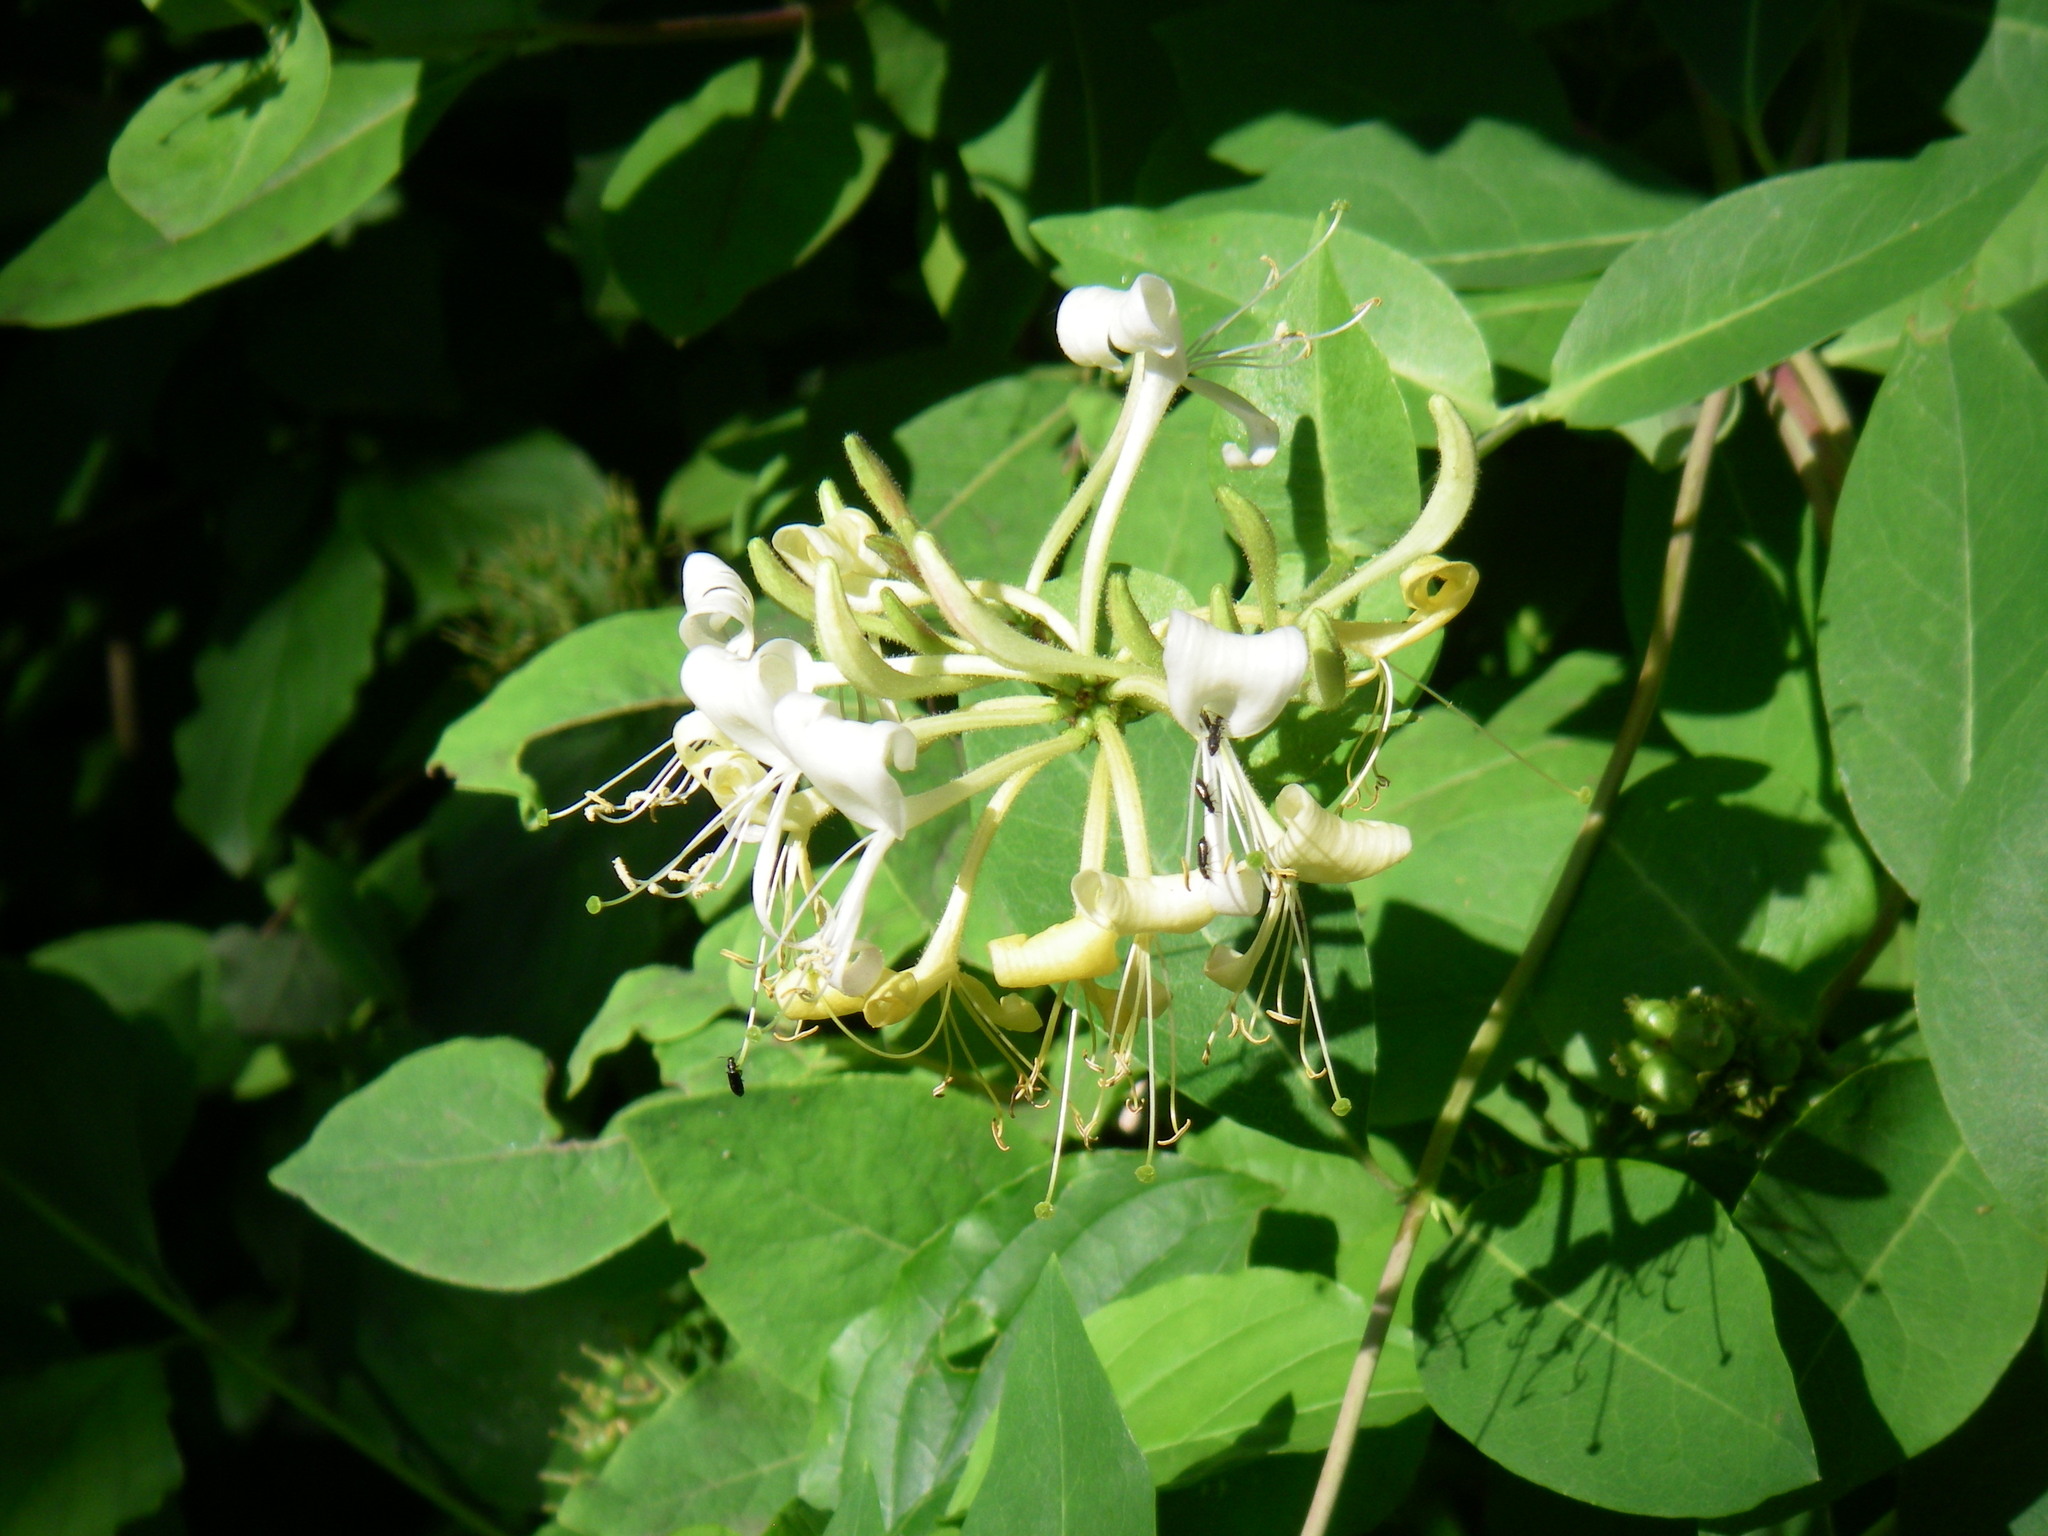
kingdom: Plantae
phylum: Tracheophyta
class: Magnoliopsida
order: Dipsacales
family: Caprifoliaceae
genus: Lonicera
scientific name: Lonicera periclymenum
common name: European honeysuckle
